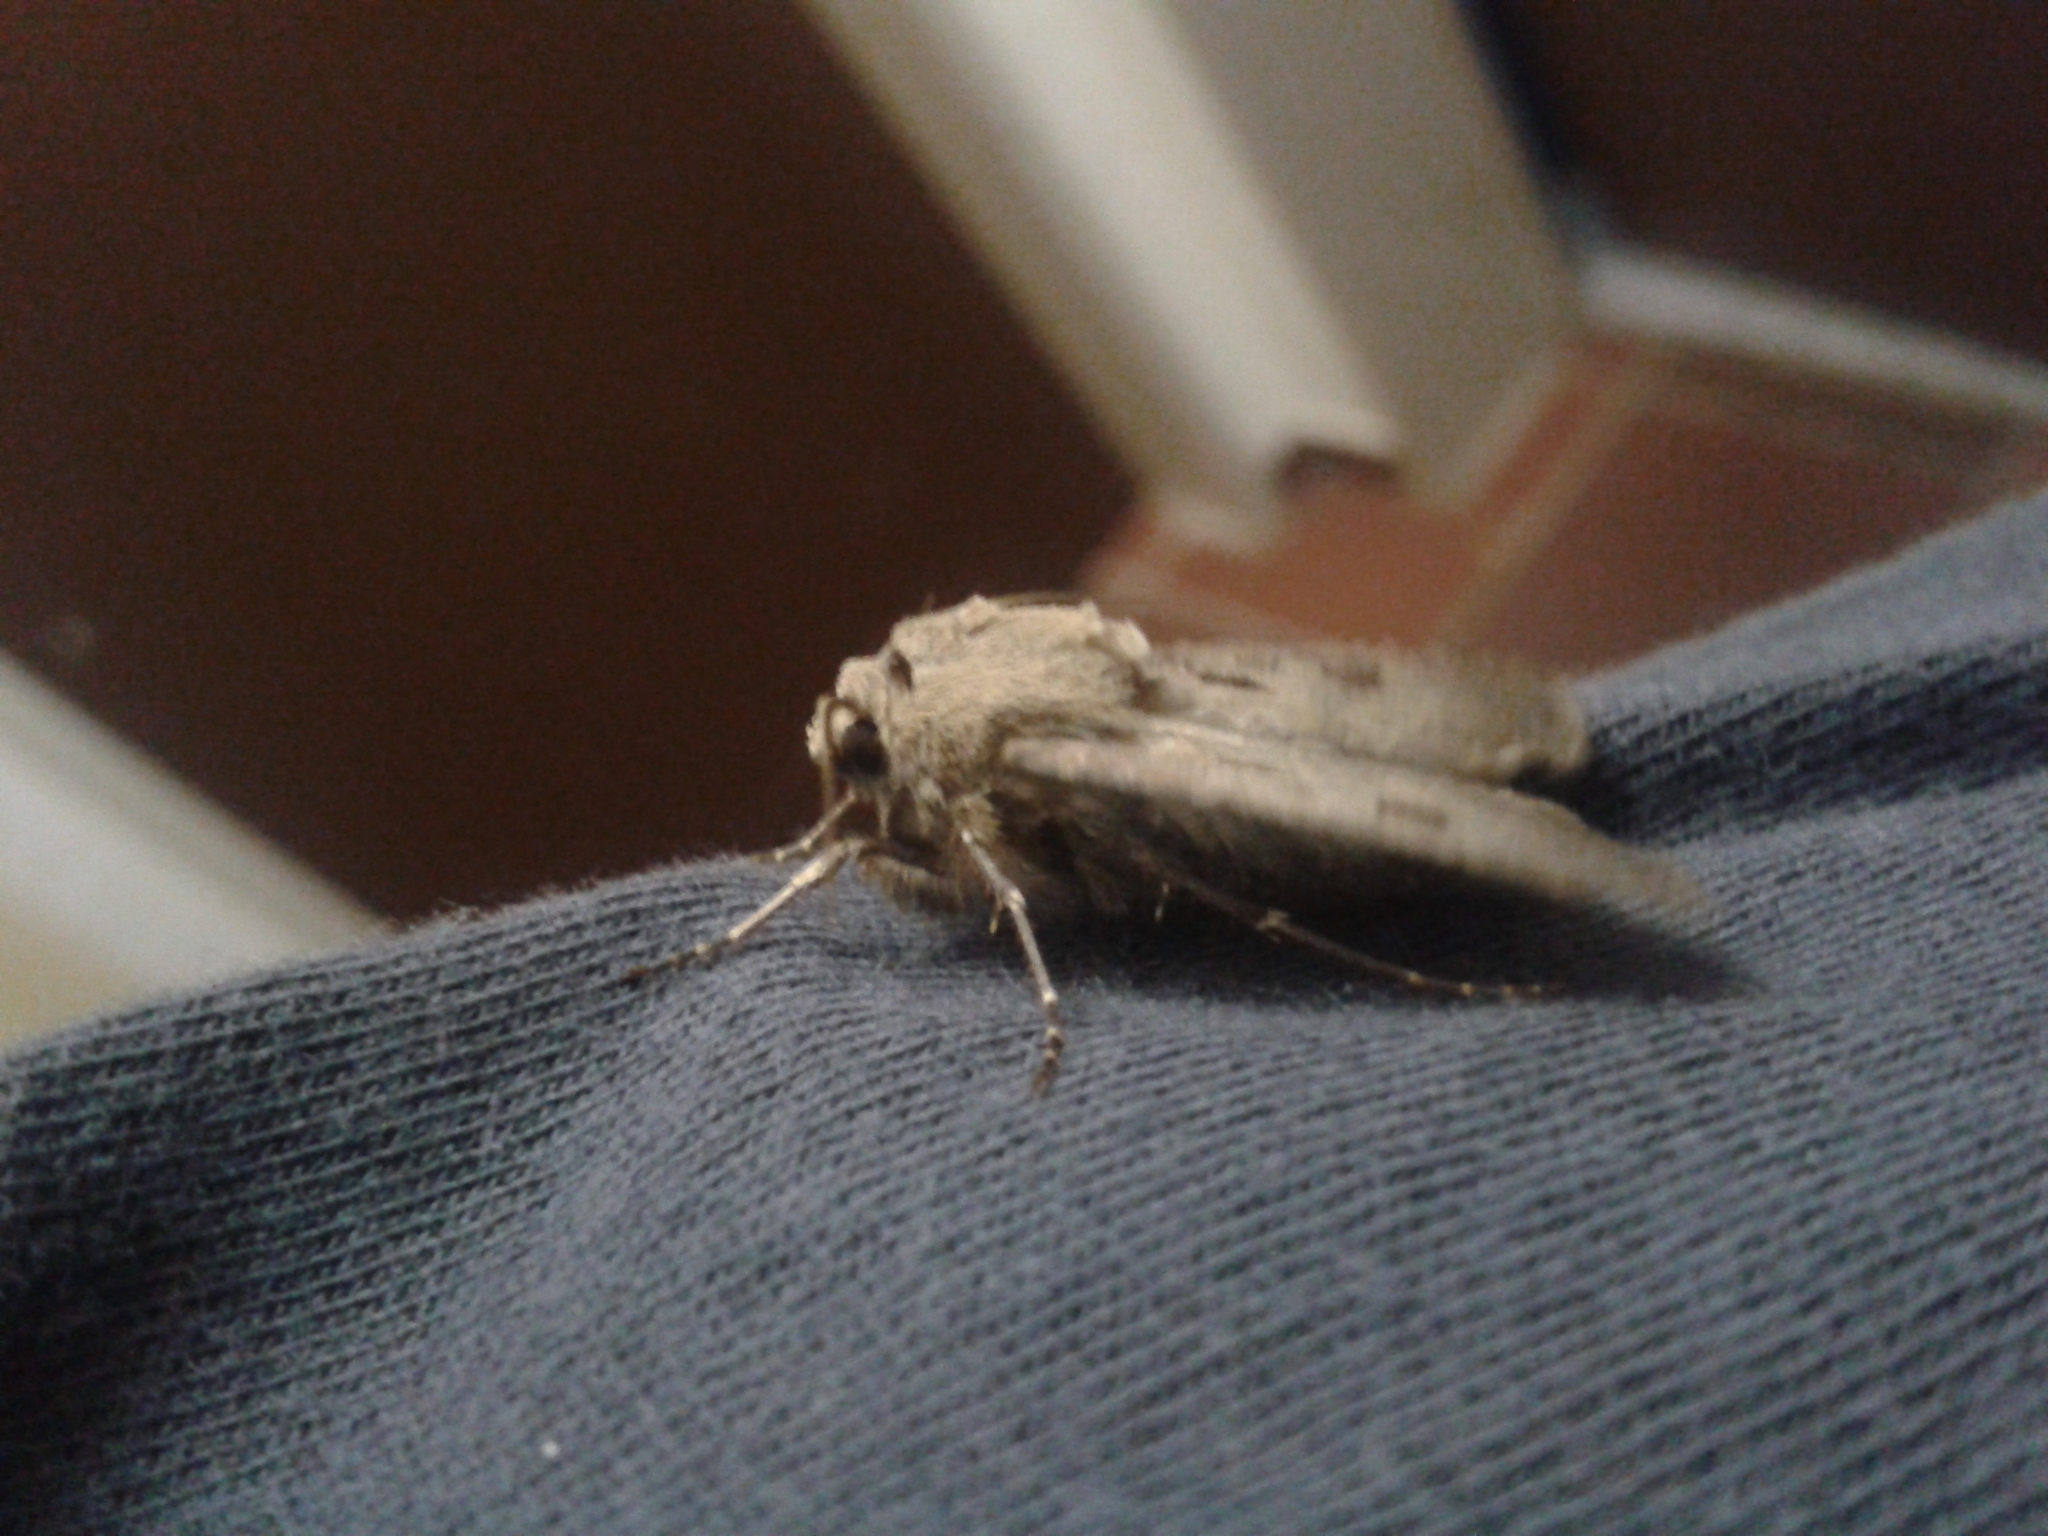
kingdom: Animalia
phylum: Arthropoda
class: Insecta
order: Lepidoptera
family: Noctuidae
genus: Agrotis
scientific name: Agrotis exclamationis
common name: Heart and dart
